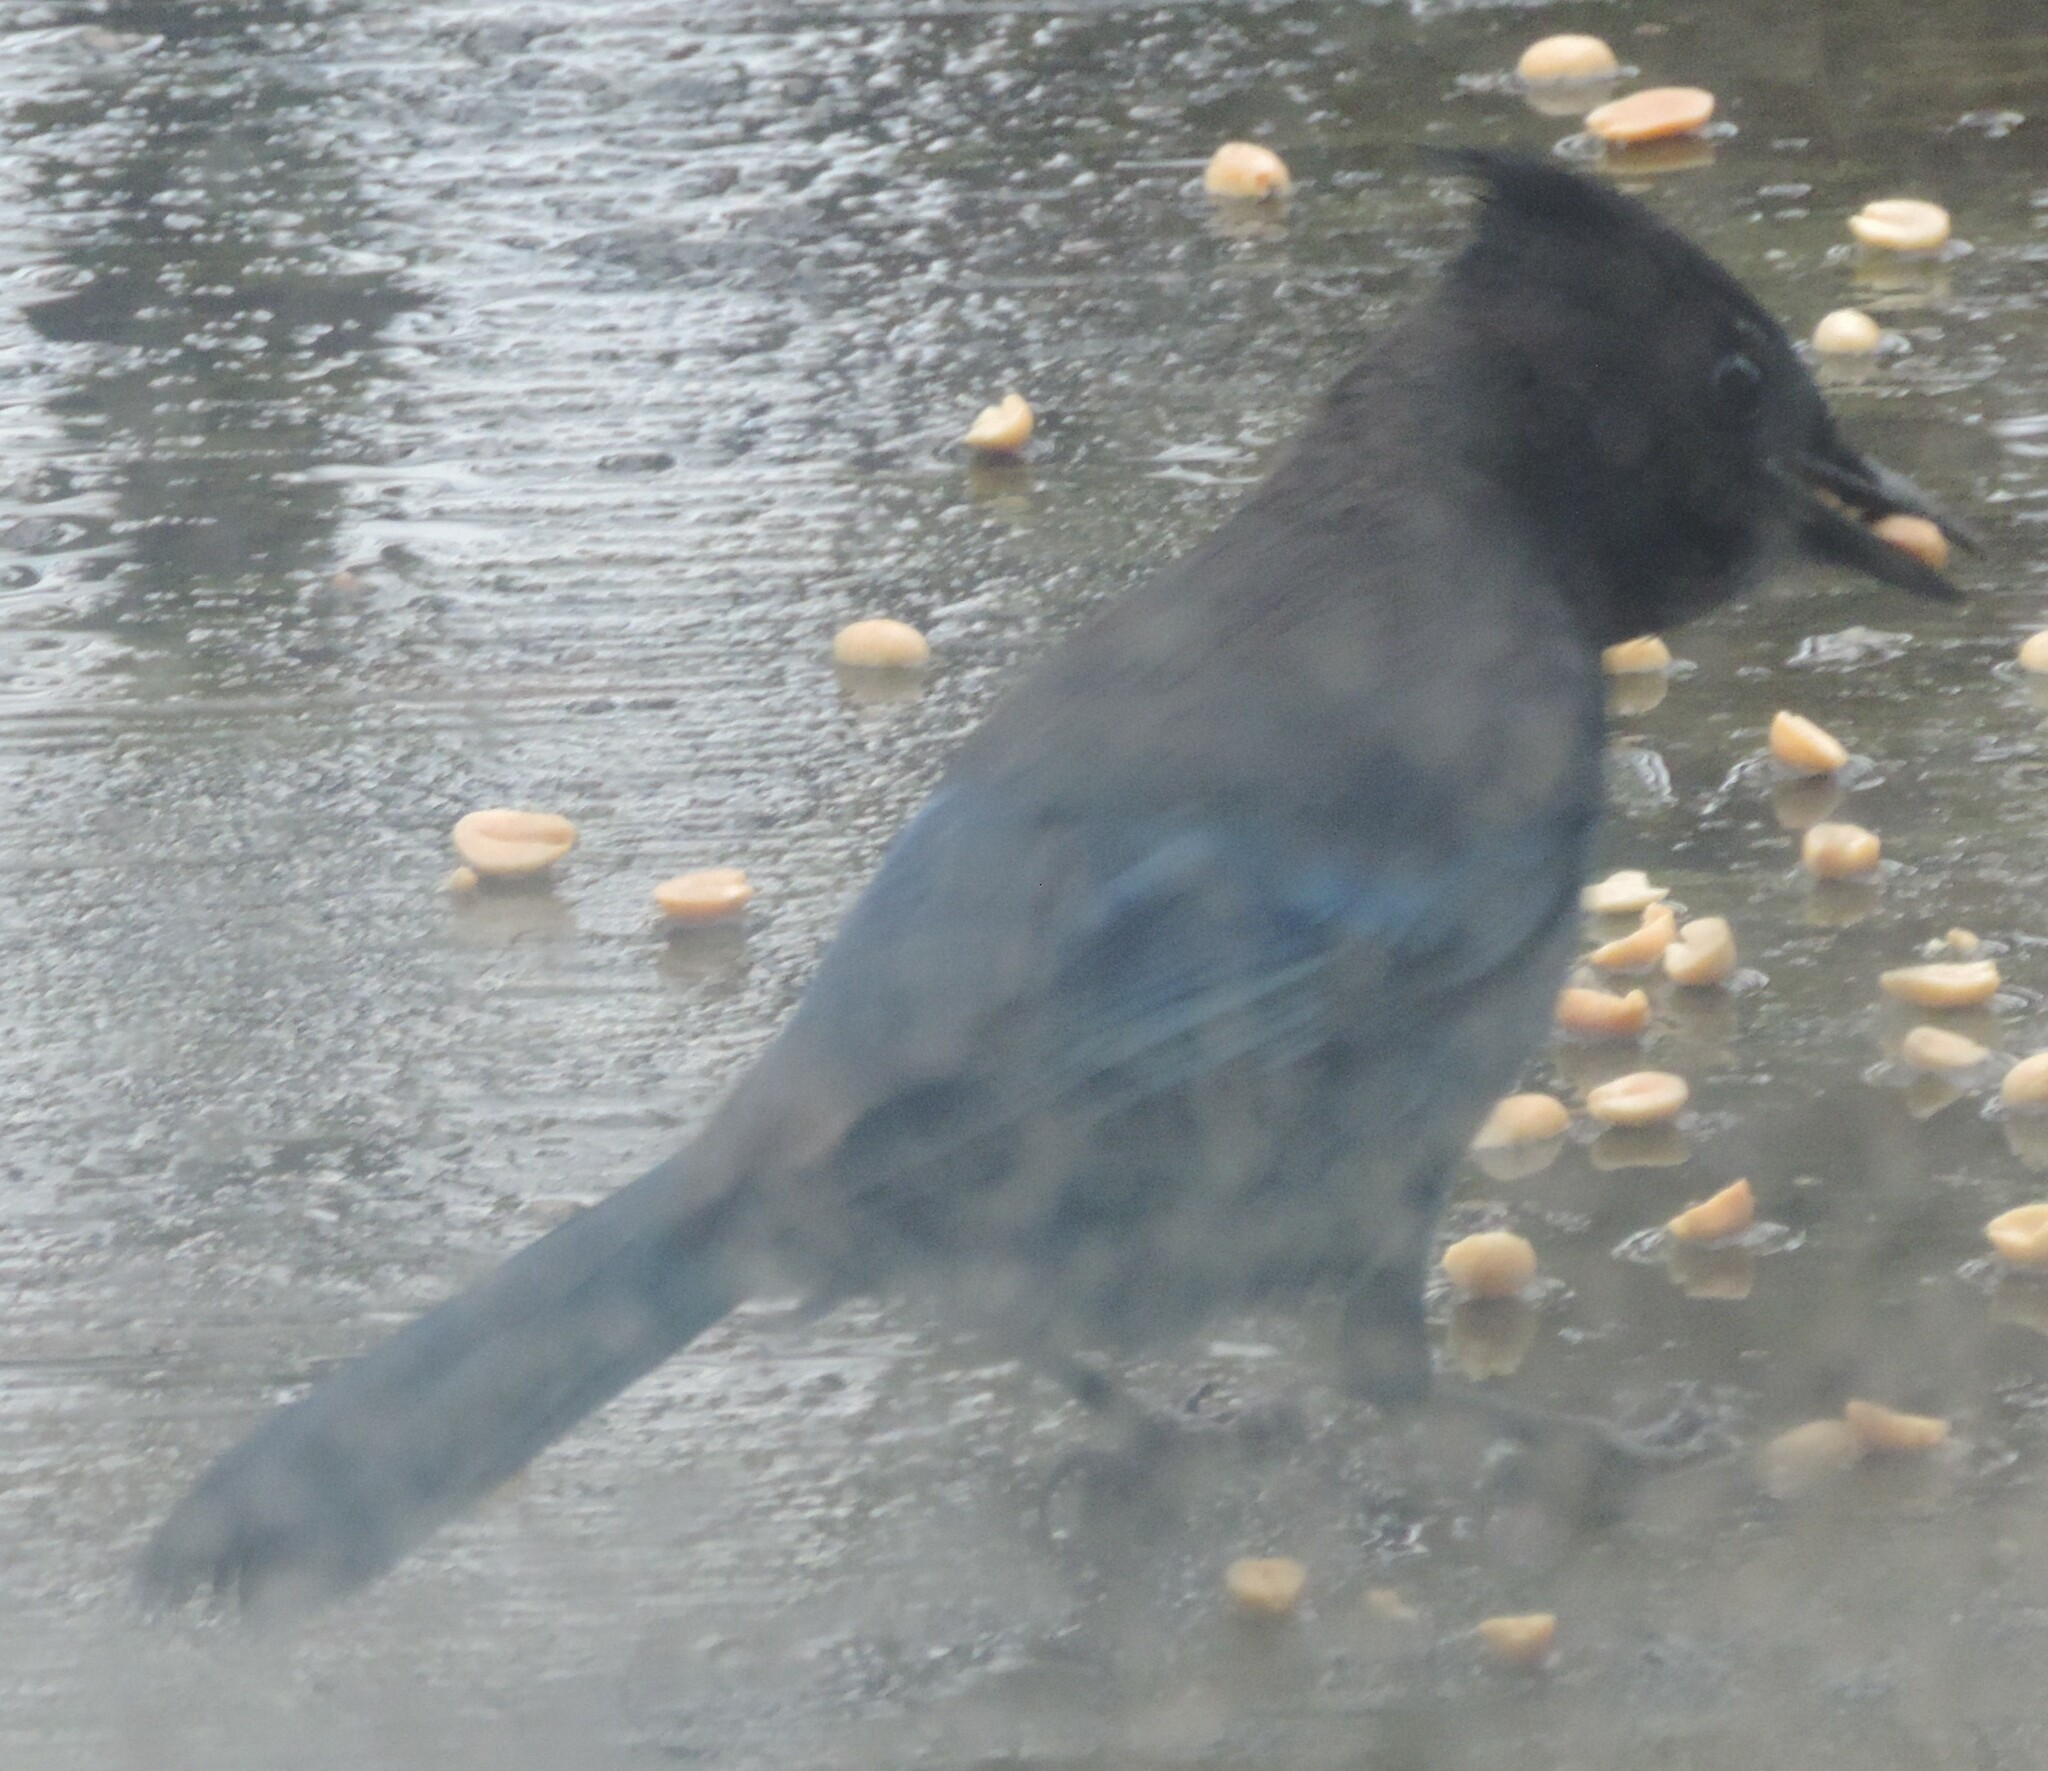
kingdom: Animalia
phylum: Chordata
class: Aves
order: Passeriformes
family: Corvidae
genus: Cyanocitta
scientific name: Cyanocitta stelleri
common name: Steller's jay
